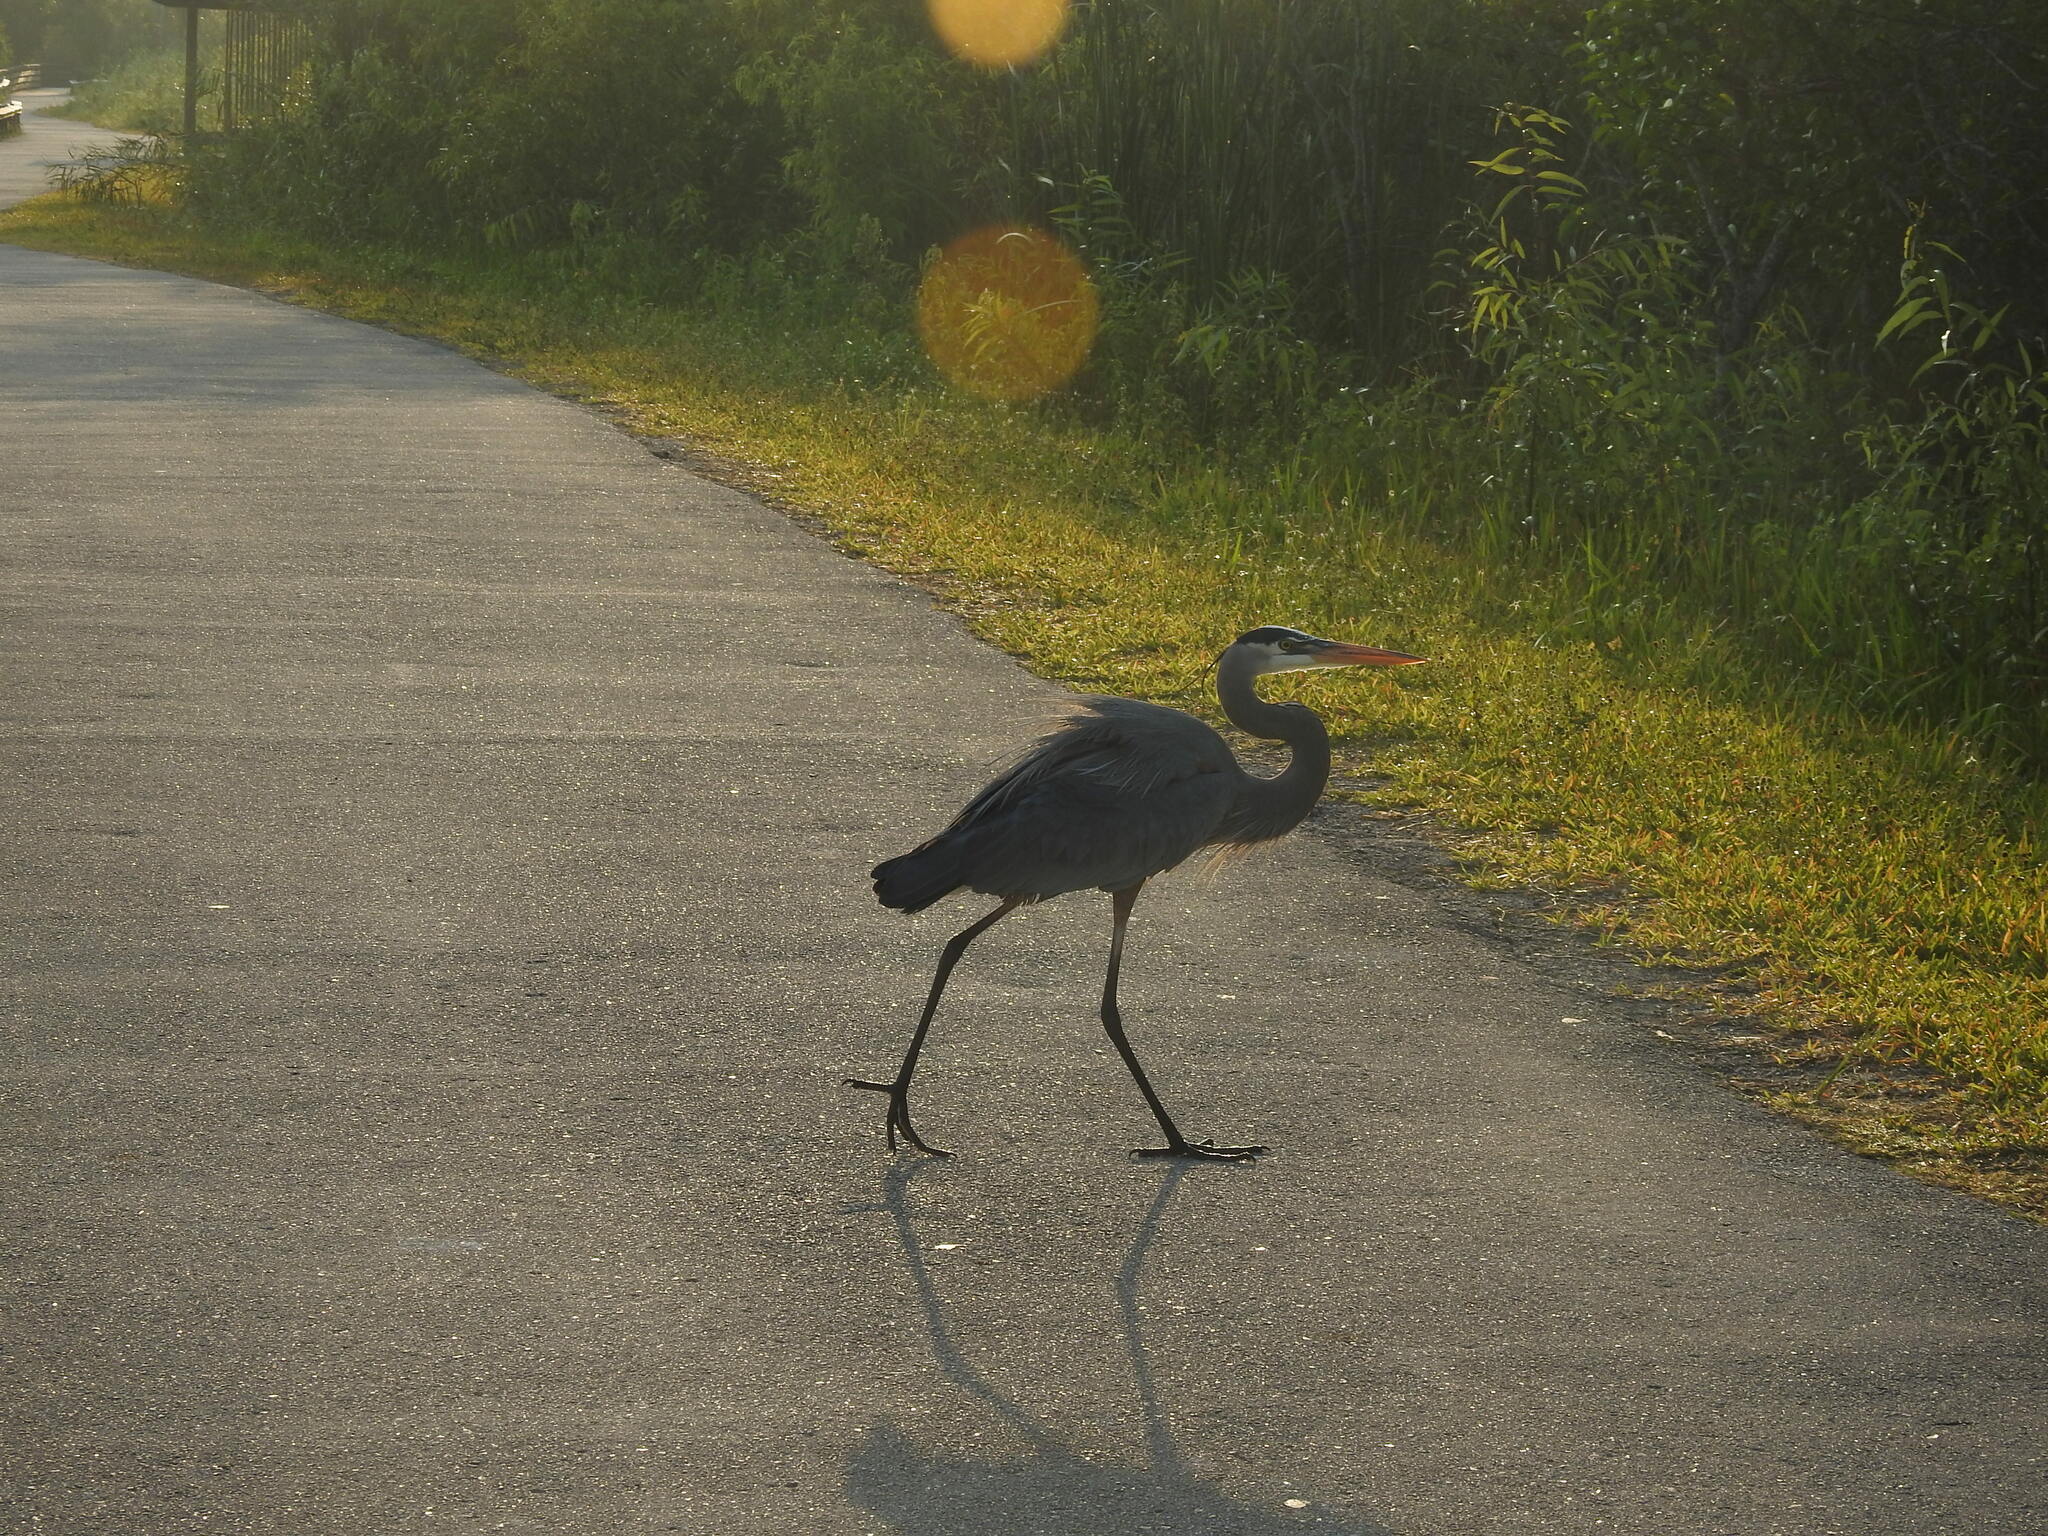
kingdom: Animalia
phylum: Chordata
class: Aves
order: Pelecaniformes
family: Ardeidae
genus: Ardea
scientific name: Ardea herodias
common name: Great blue heron
